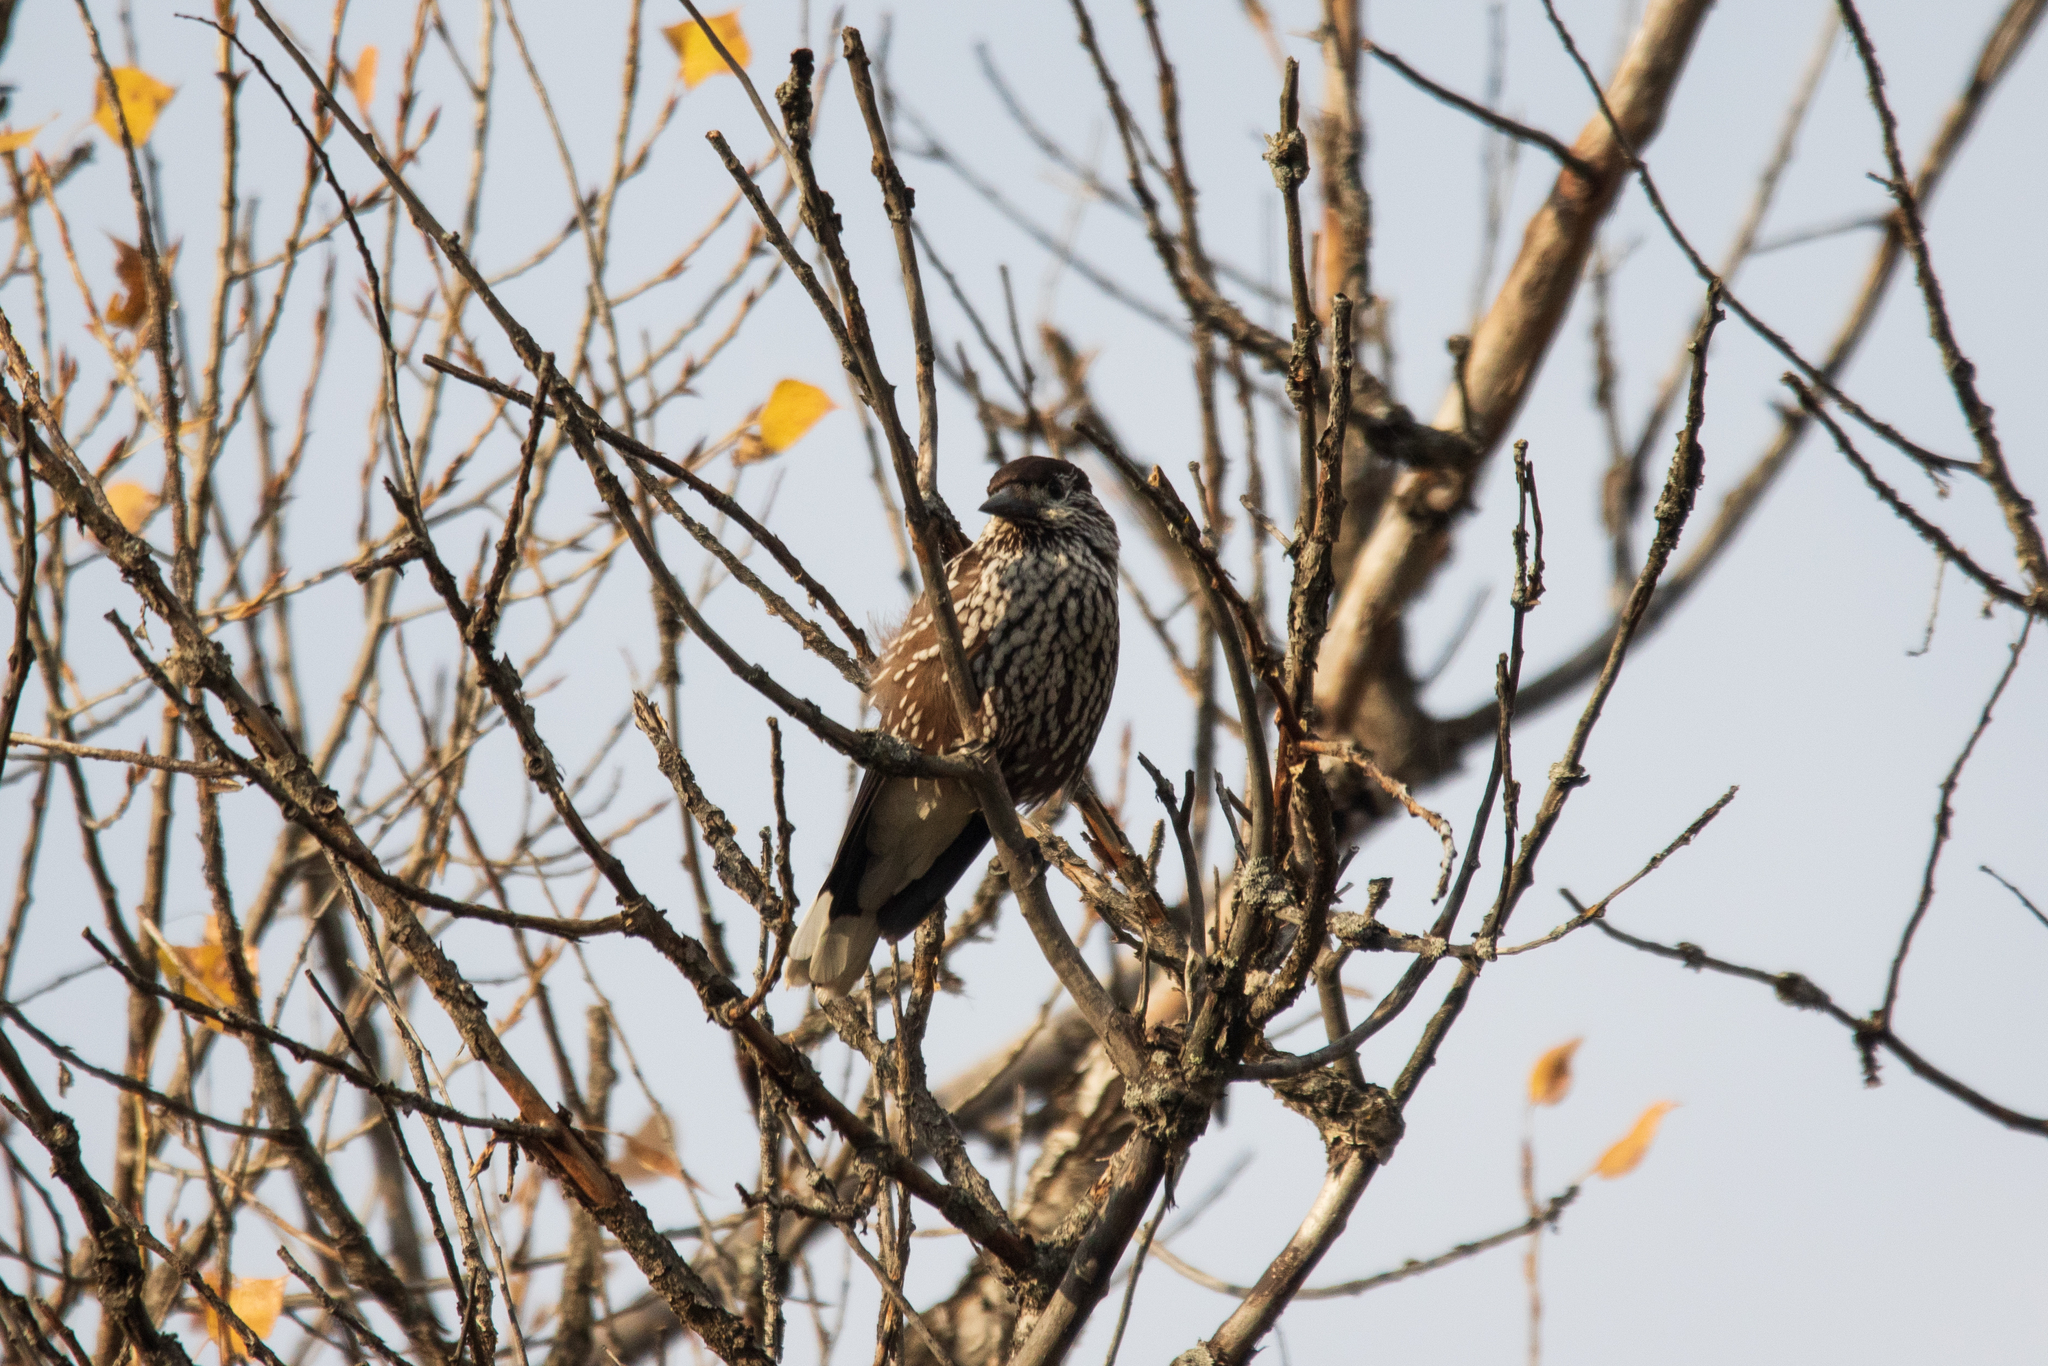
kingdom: Animalia
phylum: Chordata
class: Aves
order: Passeriformes
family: Corvidae
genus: Nucifraga
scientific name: Nucifraga caryocatactes
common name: Spotted nutcracker
